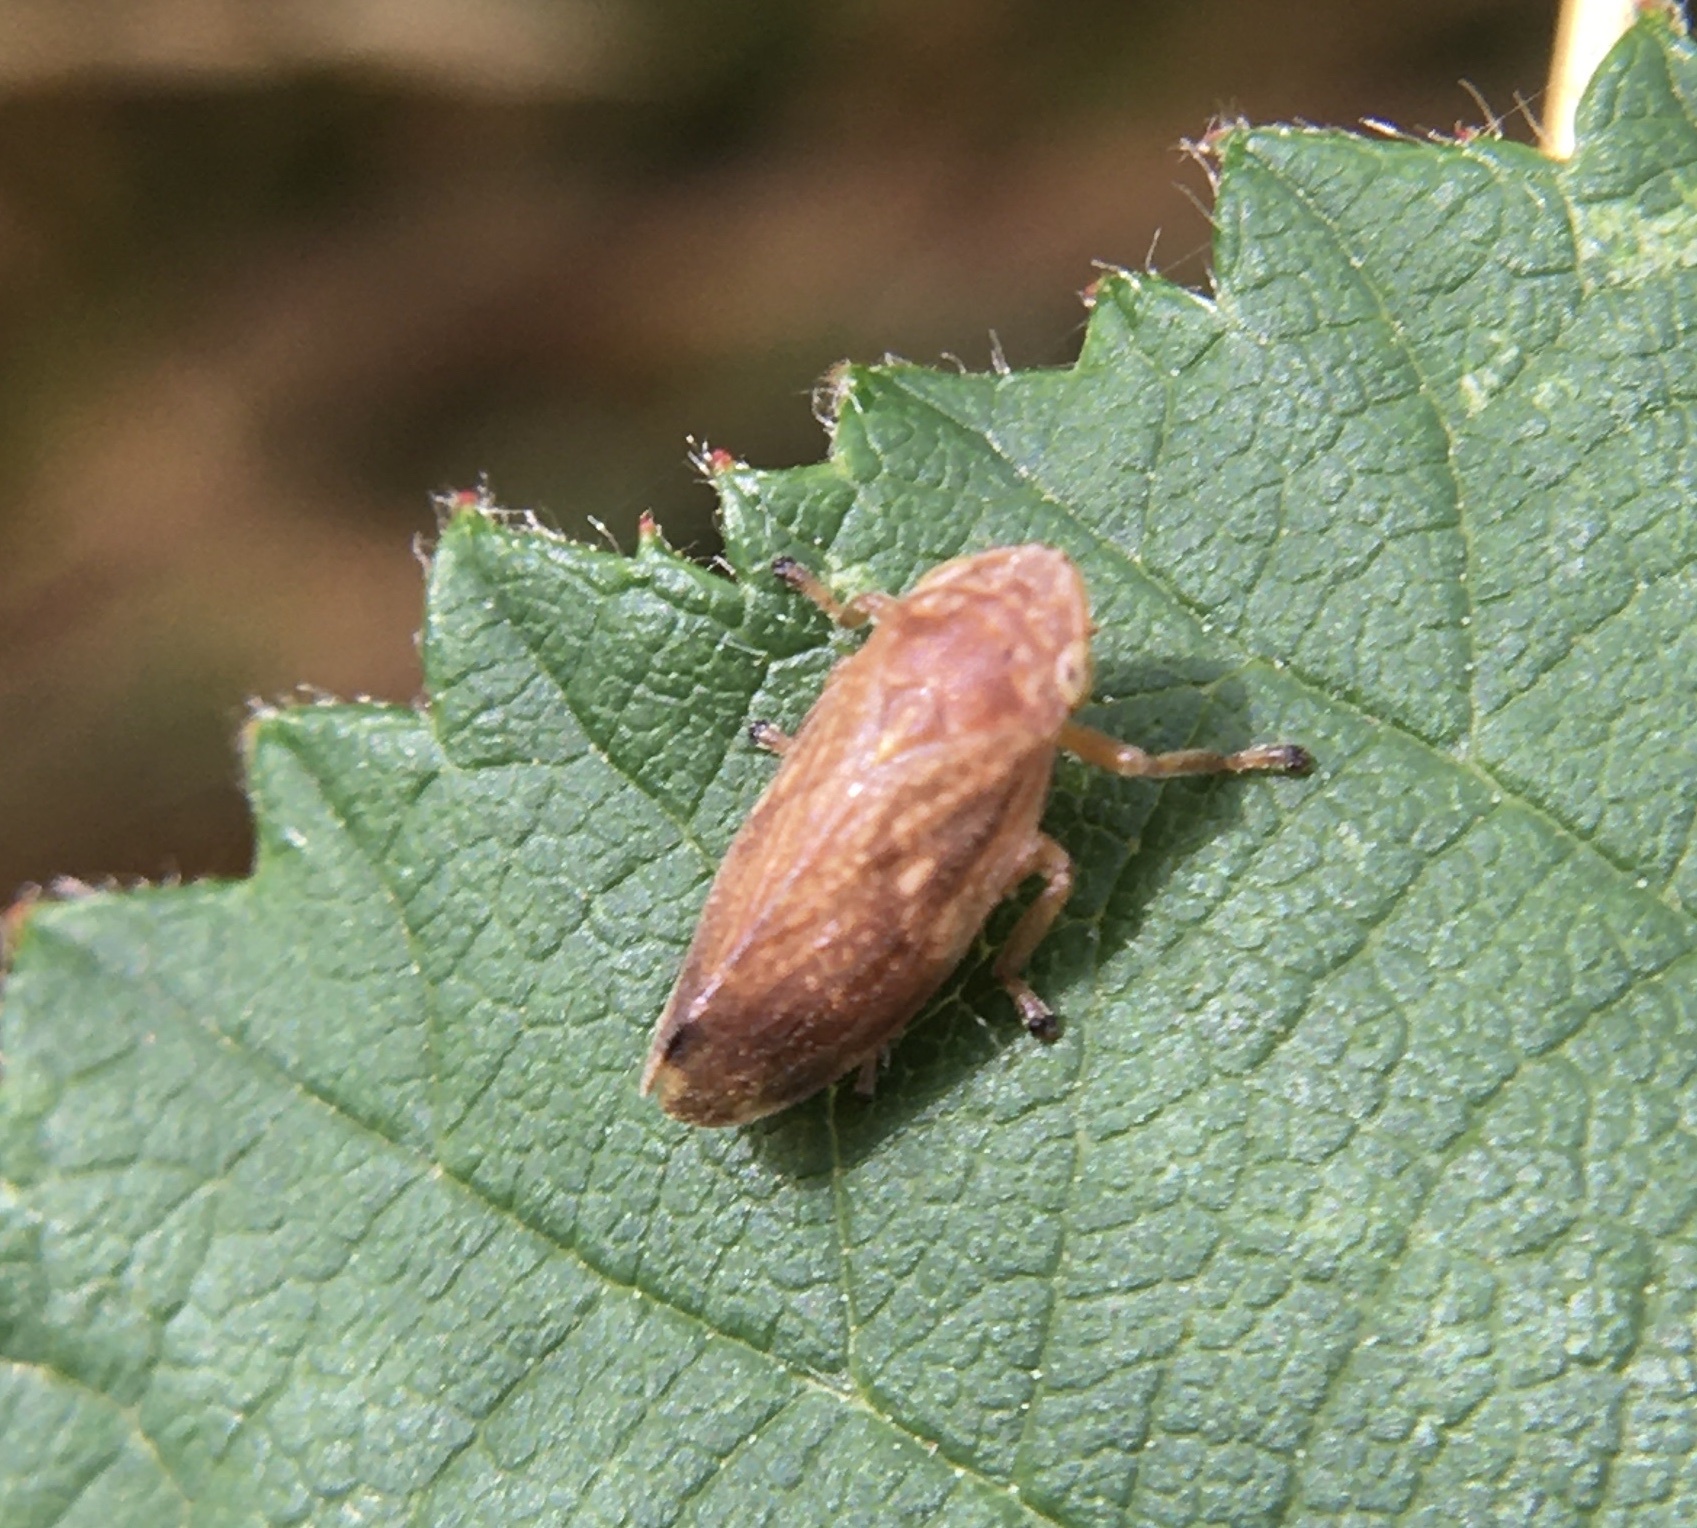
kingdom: Animalia
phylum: Arthropoda
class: Insecta
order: Hemiptera
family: Aphrophoridae
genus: Philaenus
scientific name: Philaenus spumarius
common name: Meadow spittlebug
